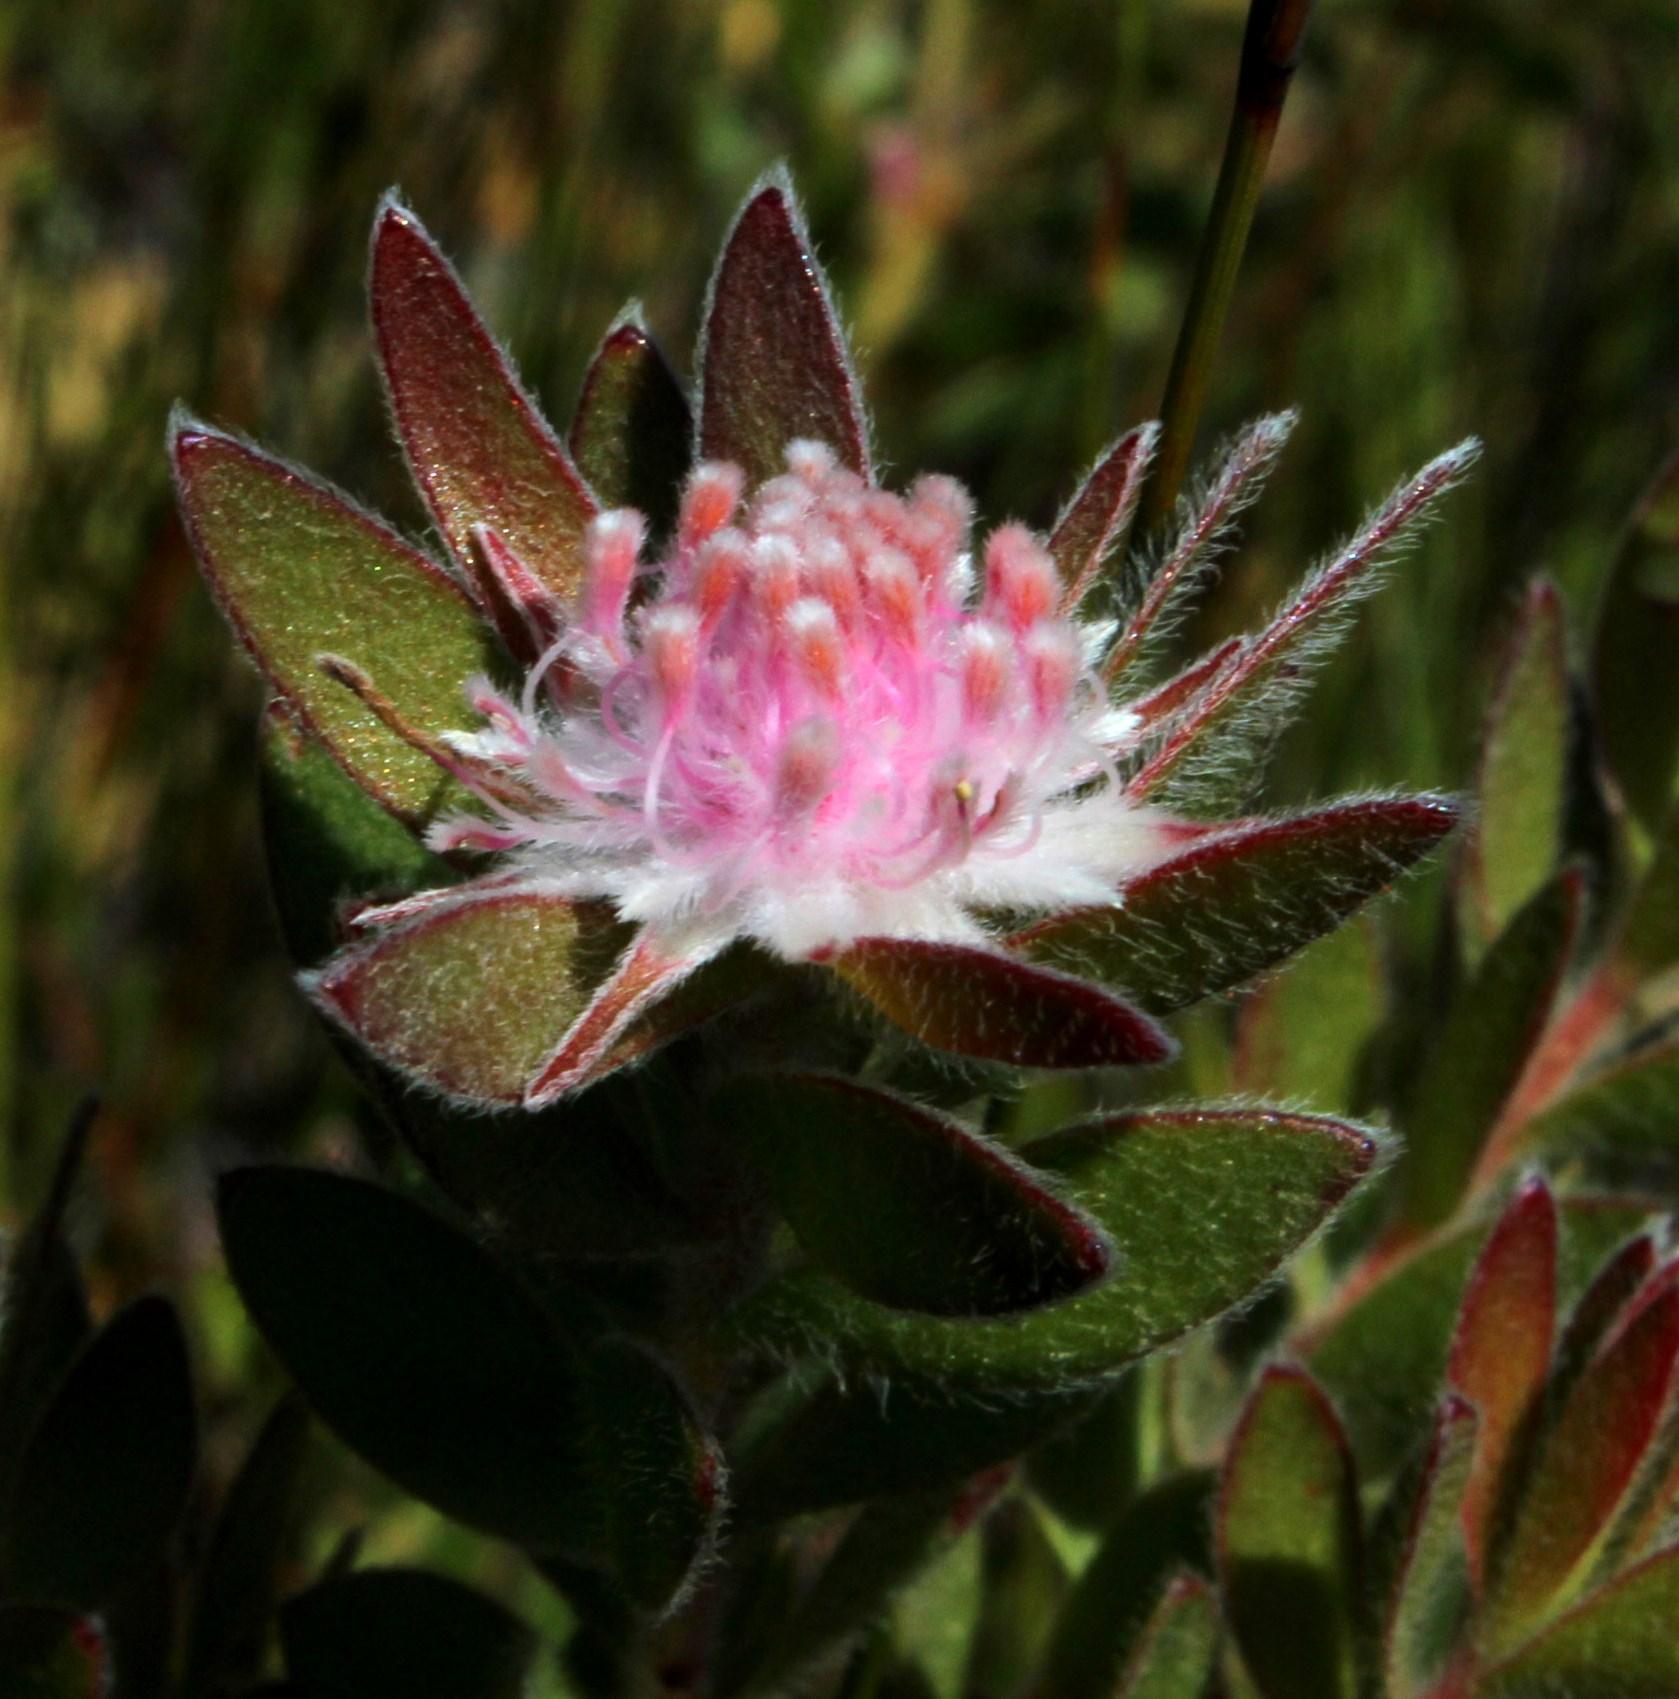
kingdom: Plantae
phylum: Tracheophyta
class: Magnoliopsida
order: Proteales
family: Proteaceae
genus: Diastella
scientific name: Diastella divaricata
